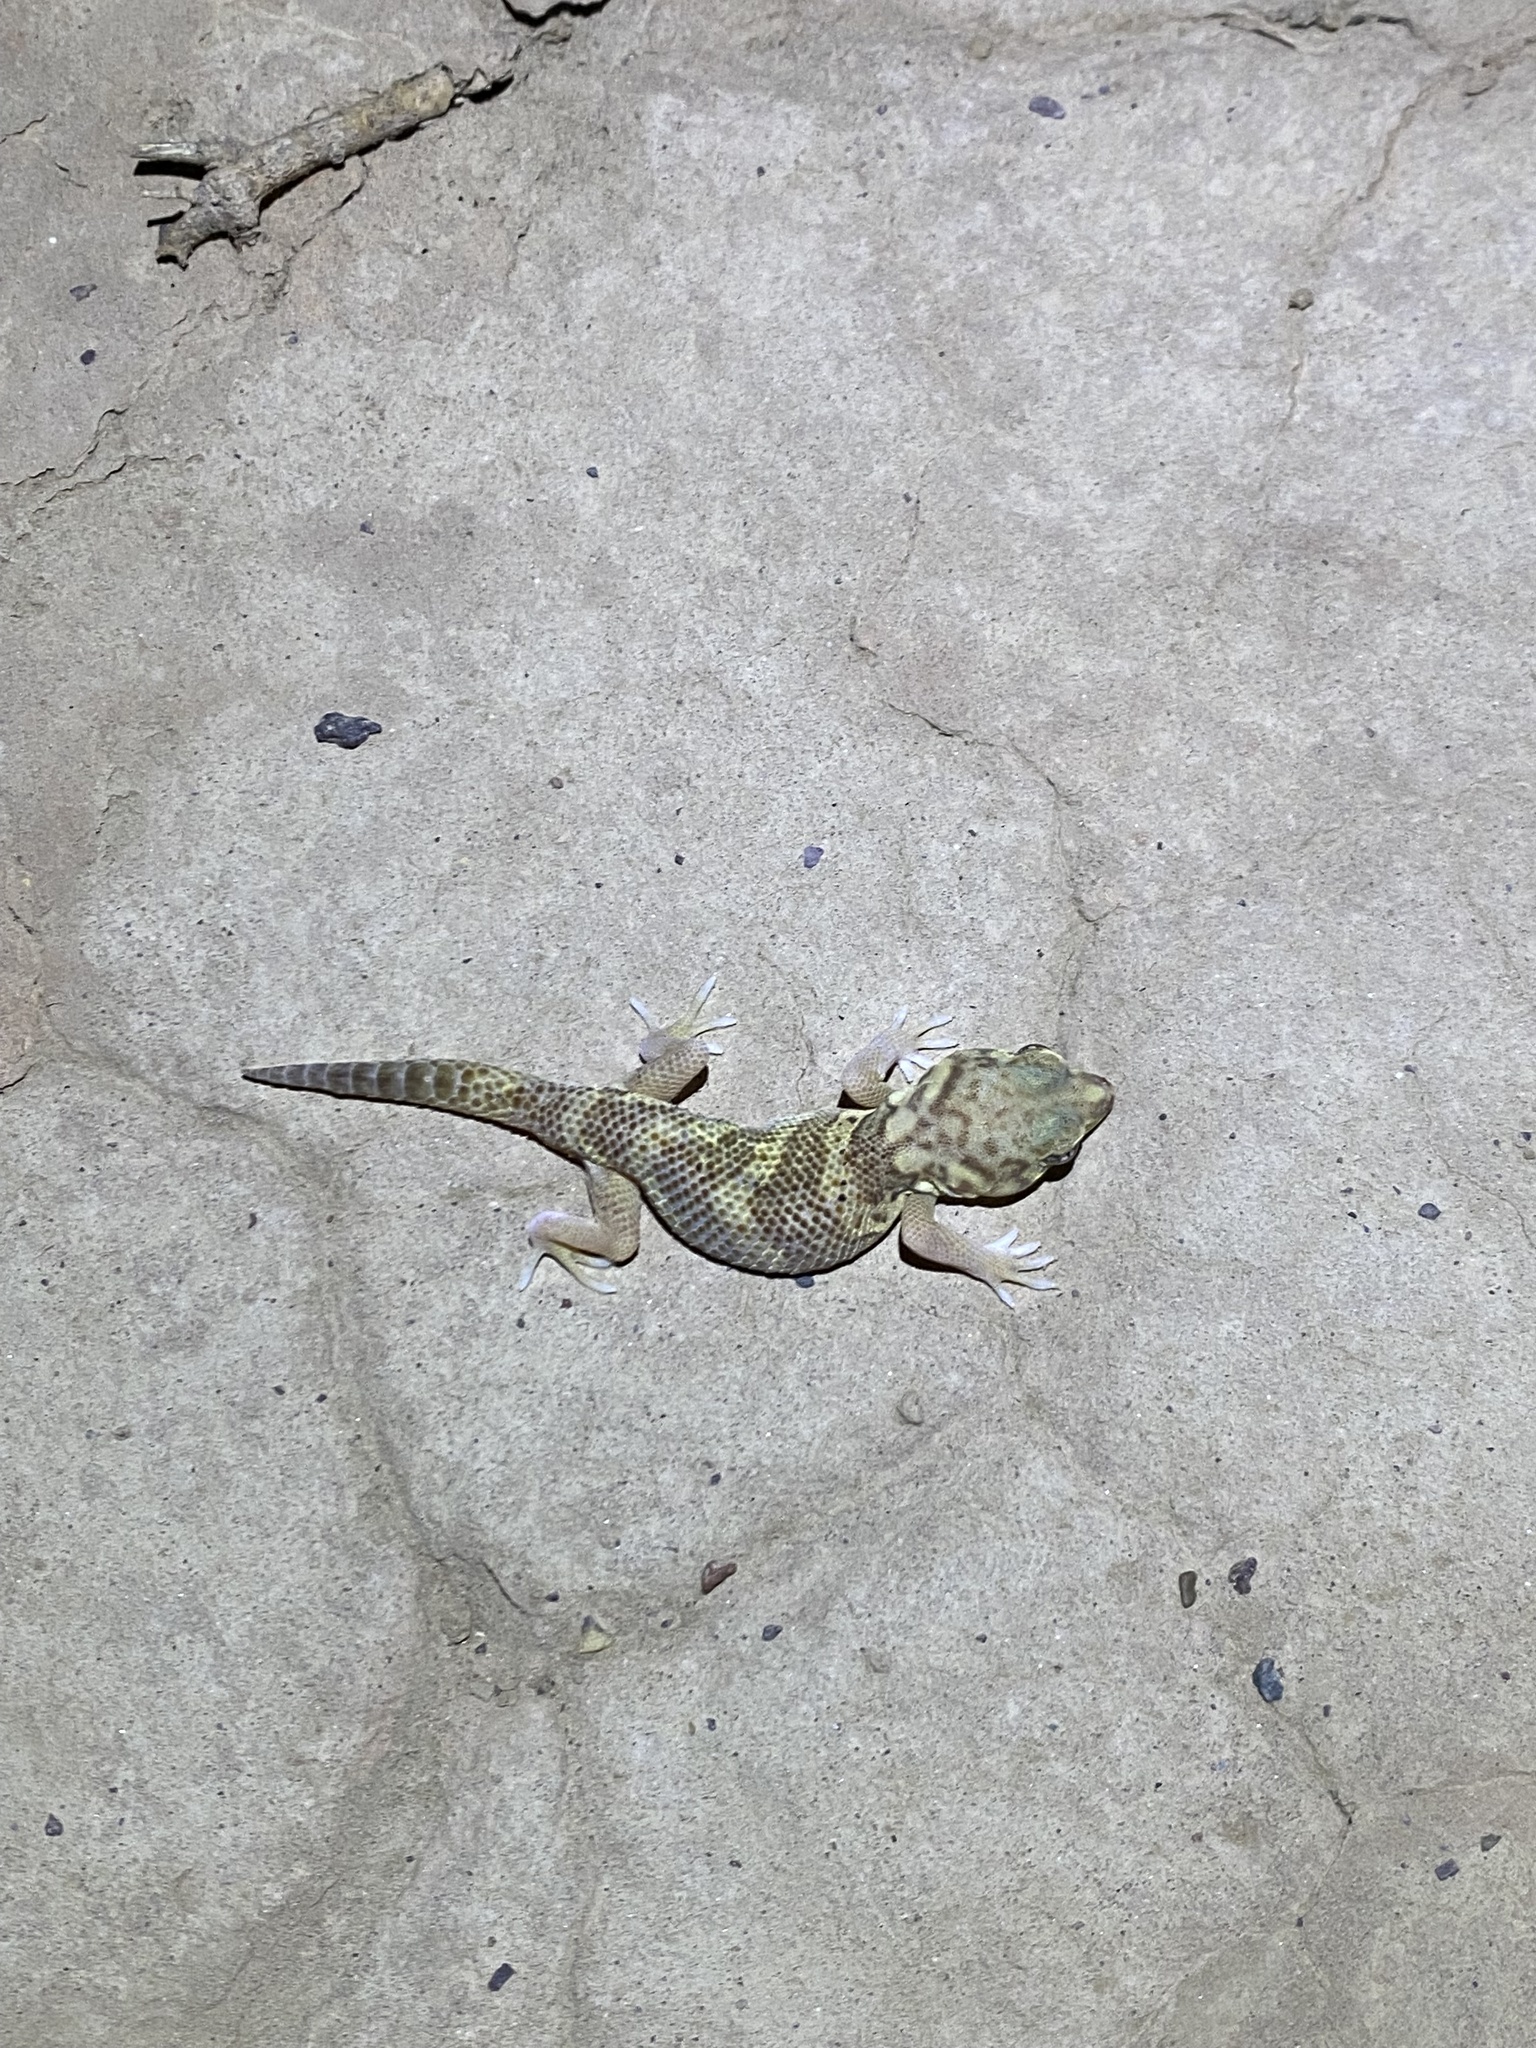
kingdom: Animalia
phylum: Chordata
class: Squamata
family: Sphaerodactylidae
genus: Teratoscincus
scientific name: Teratoscincus bedriagai
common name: Bedriaga's plate-tailed gecko
